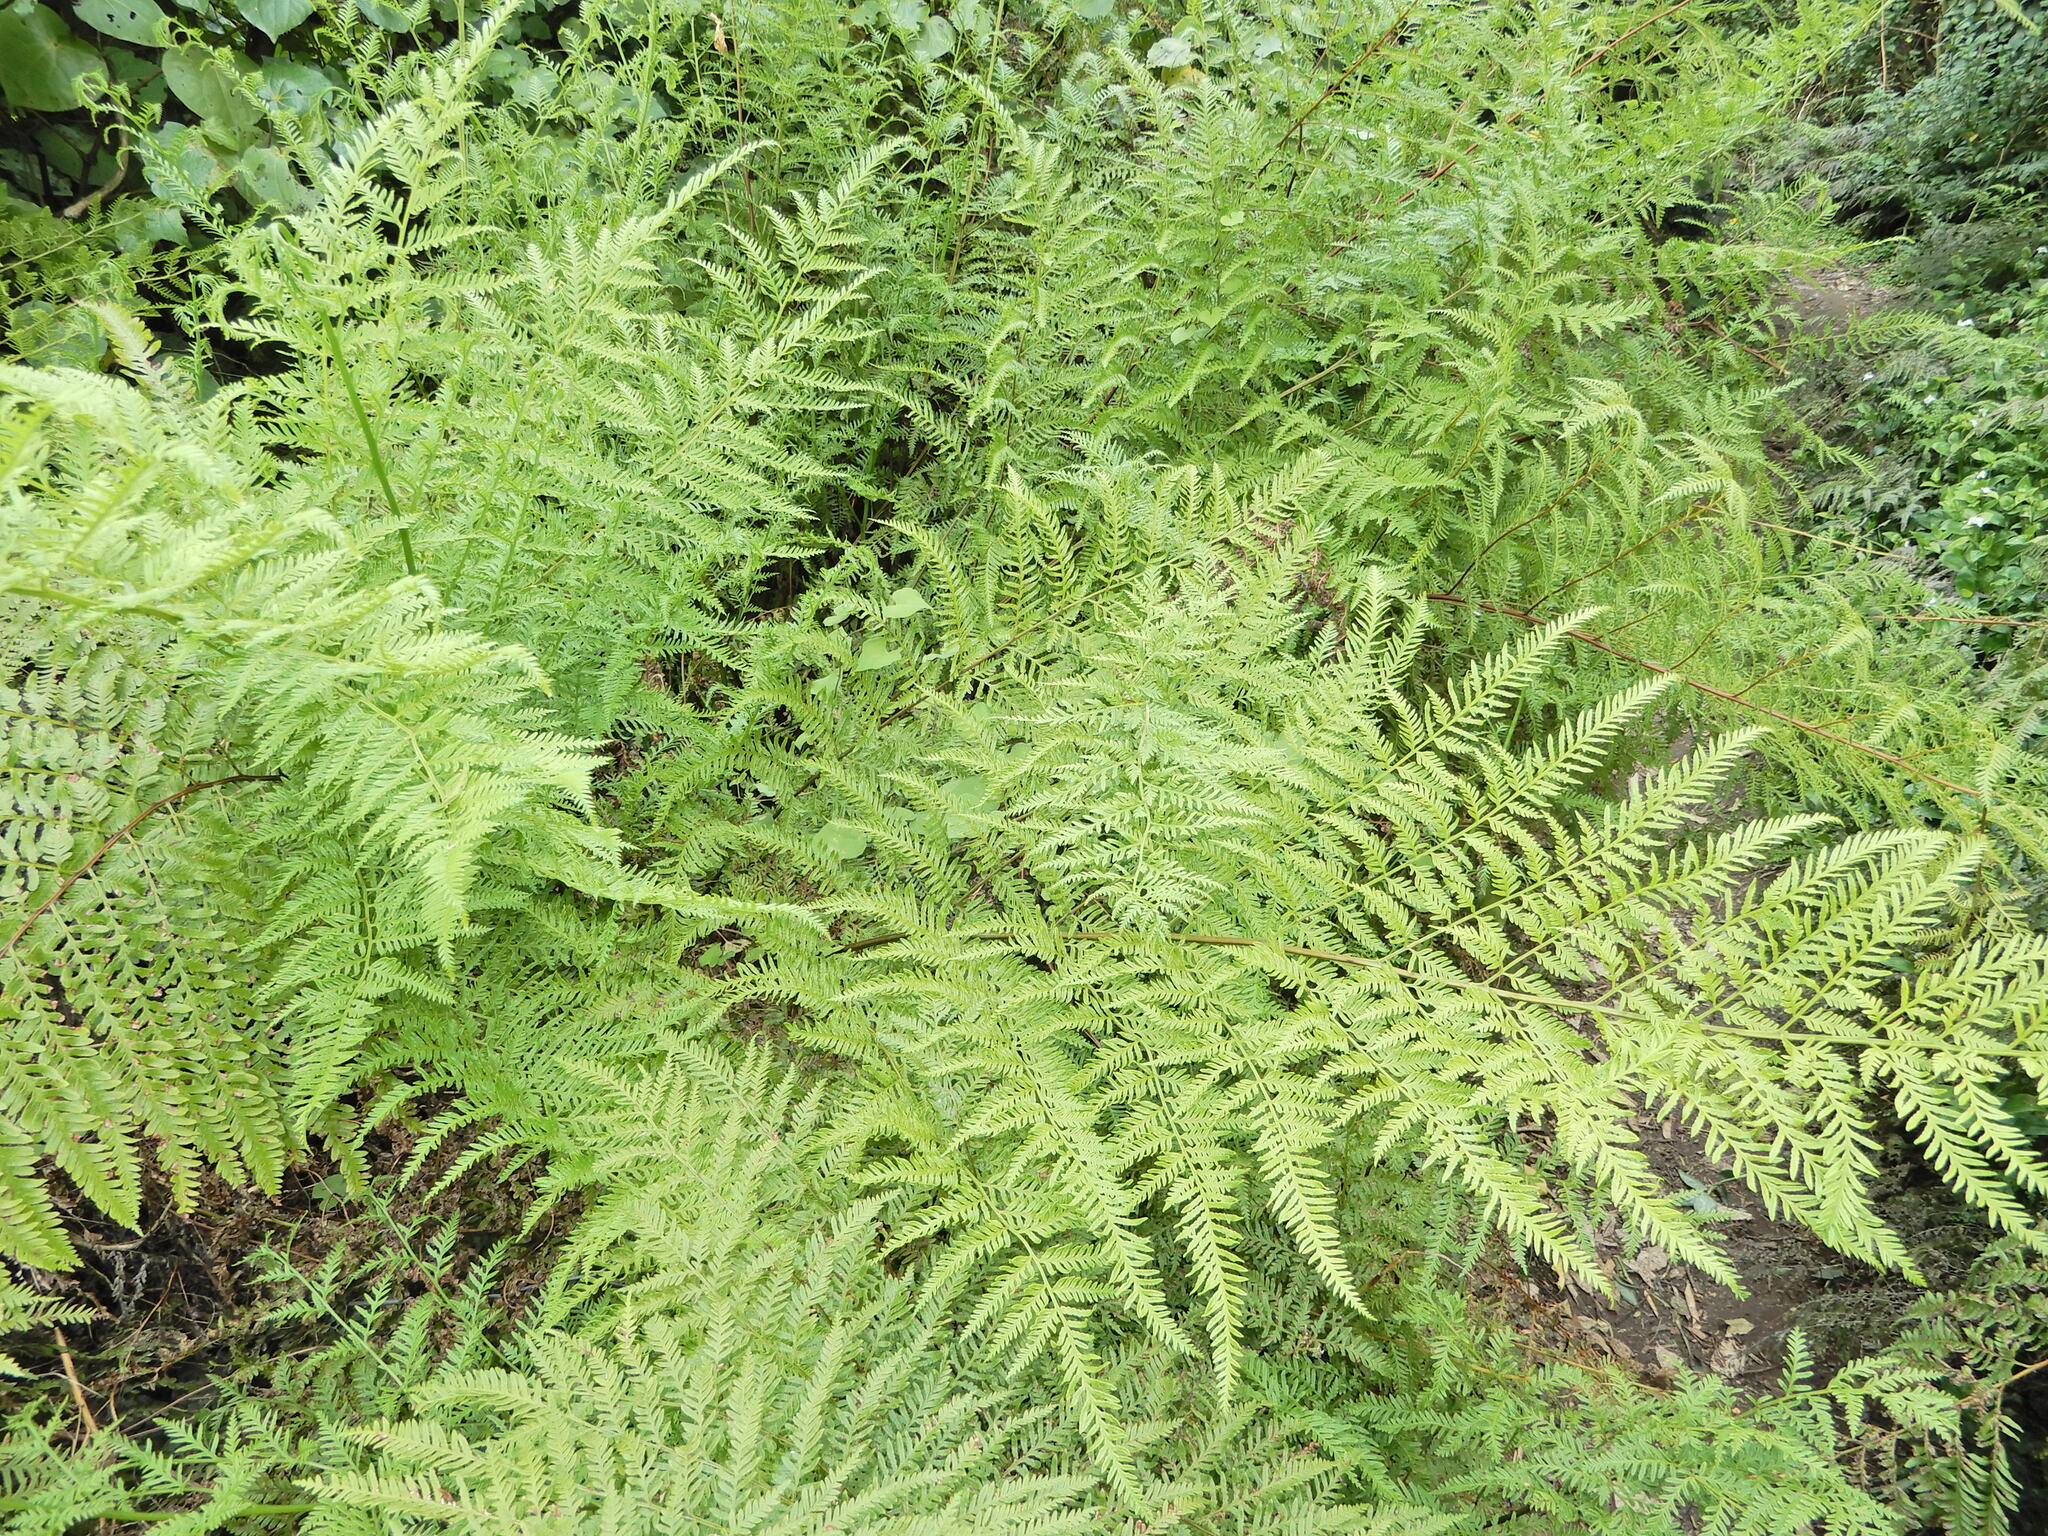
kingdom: Plantae
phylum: Tracheophyta
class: Polypodiopsida
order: Polypodiales
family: Pteridaceae
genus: Pteris
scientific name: Pteris tremula
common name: Australian brake
